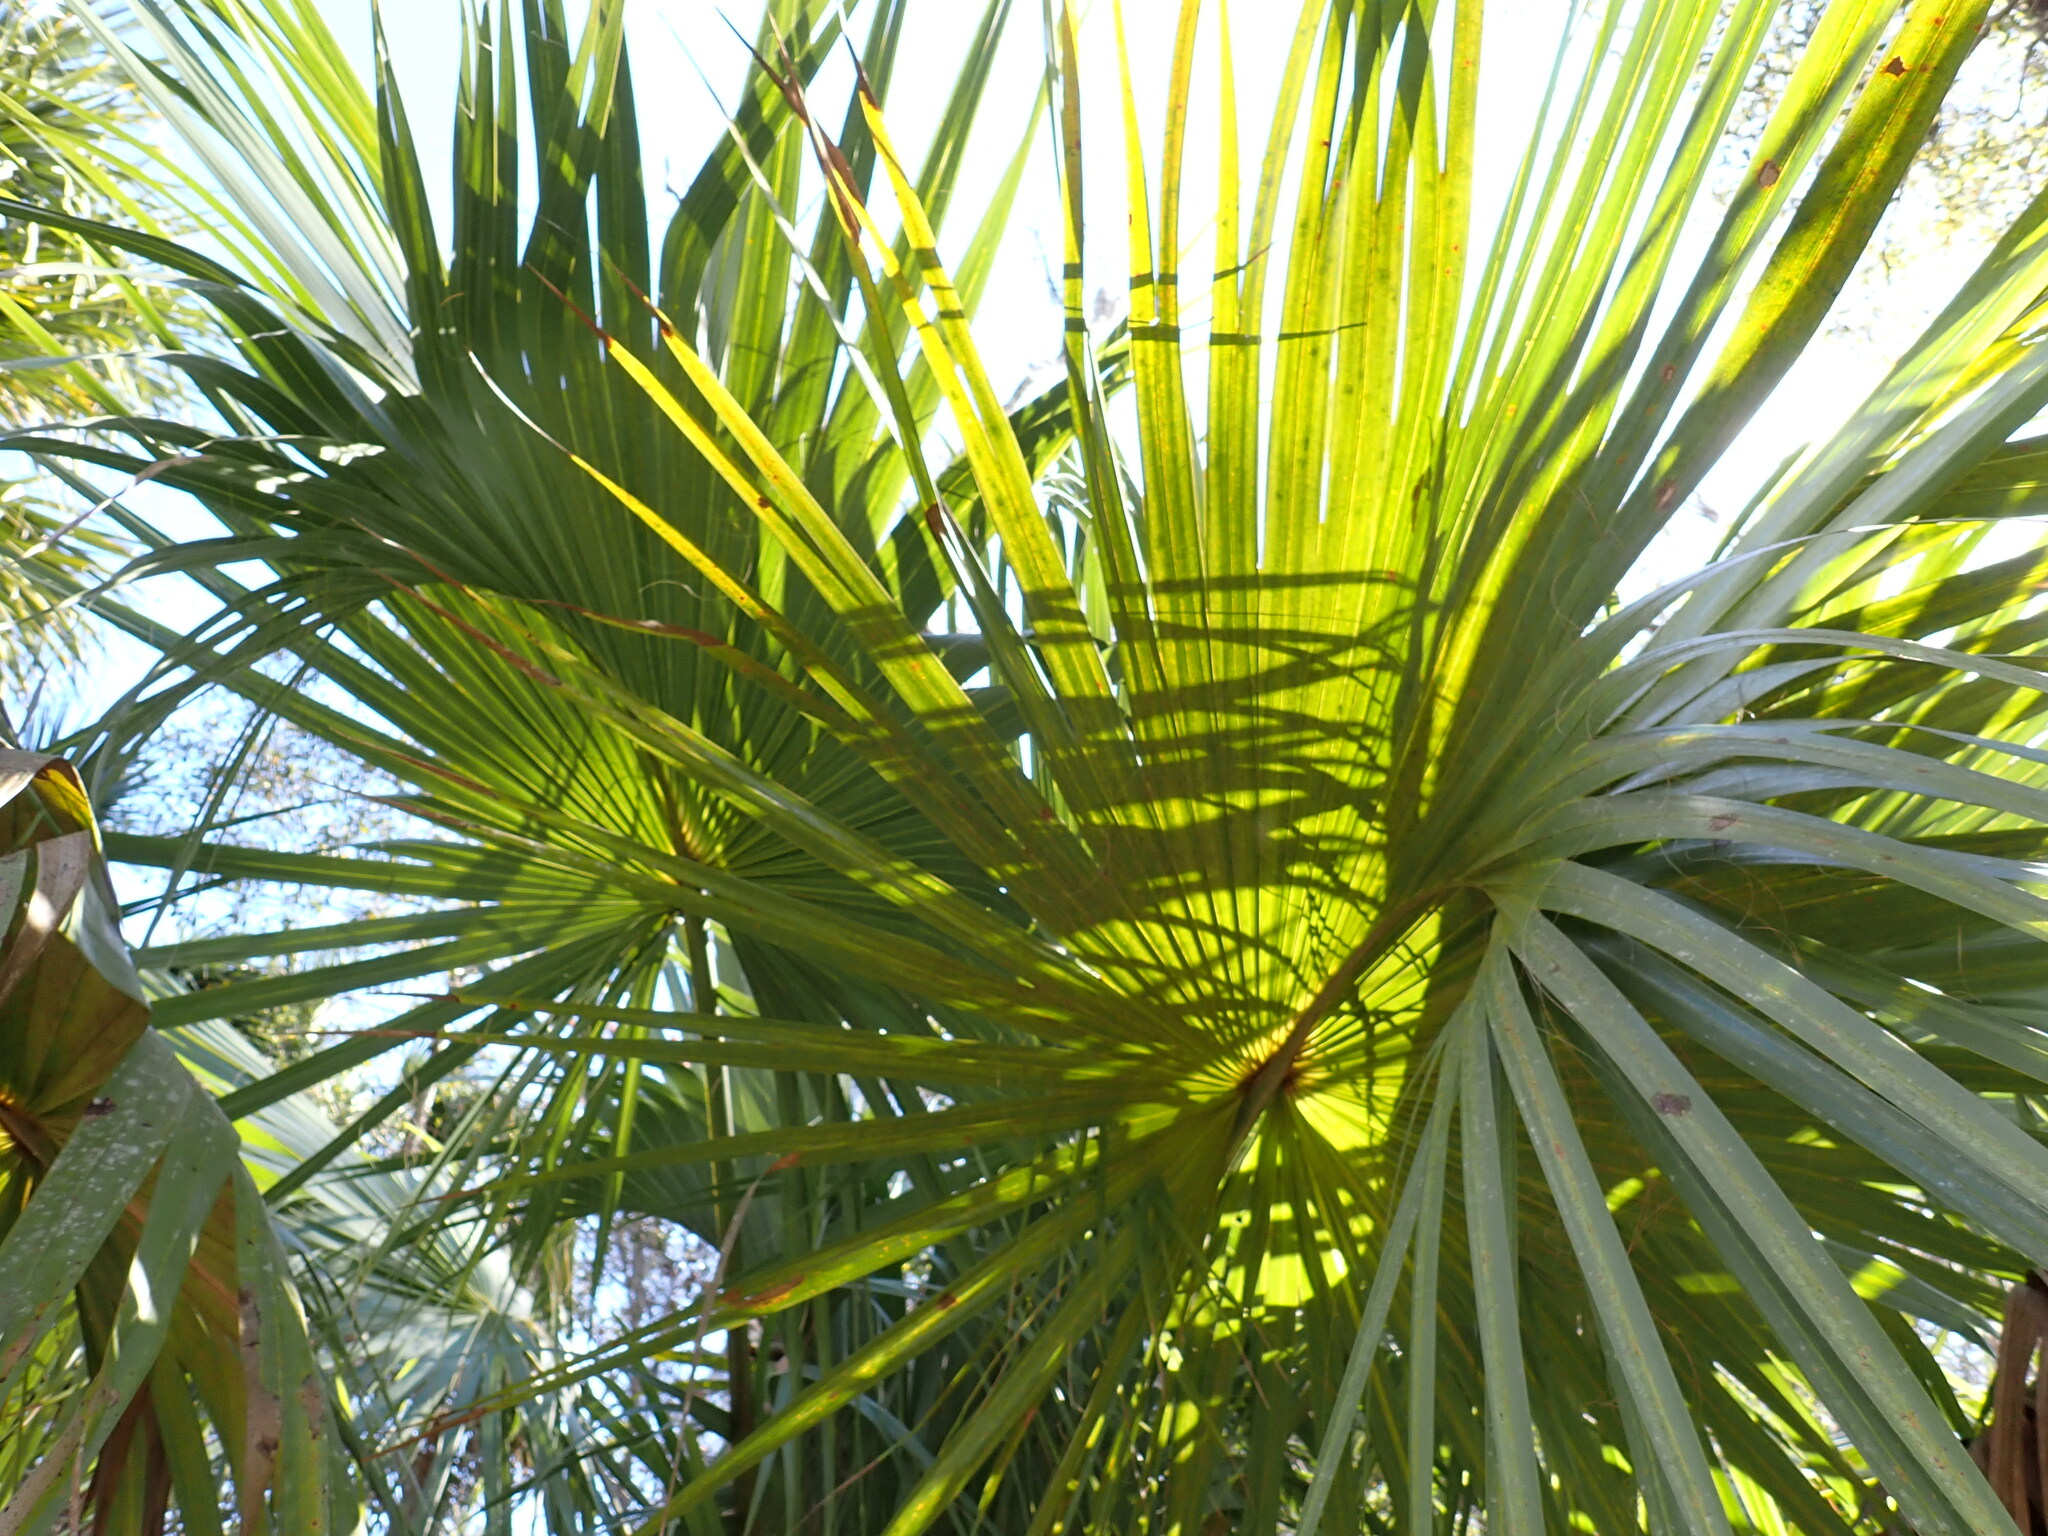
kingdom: Plantae
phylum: Tracheophyta
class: Liliopsida
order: Arecales
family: Arecaceae
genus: Sabal
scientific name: Sabal palmetto
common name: Blue palmetto
